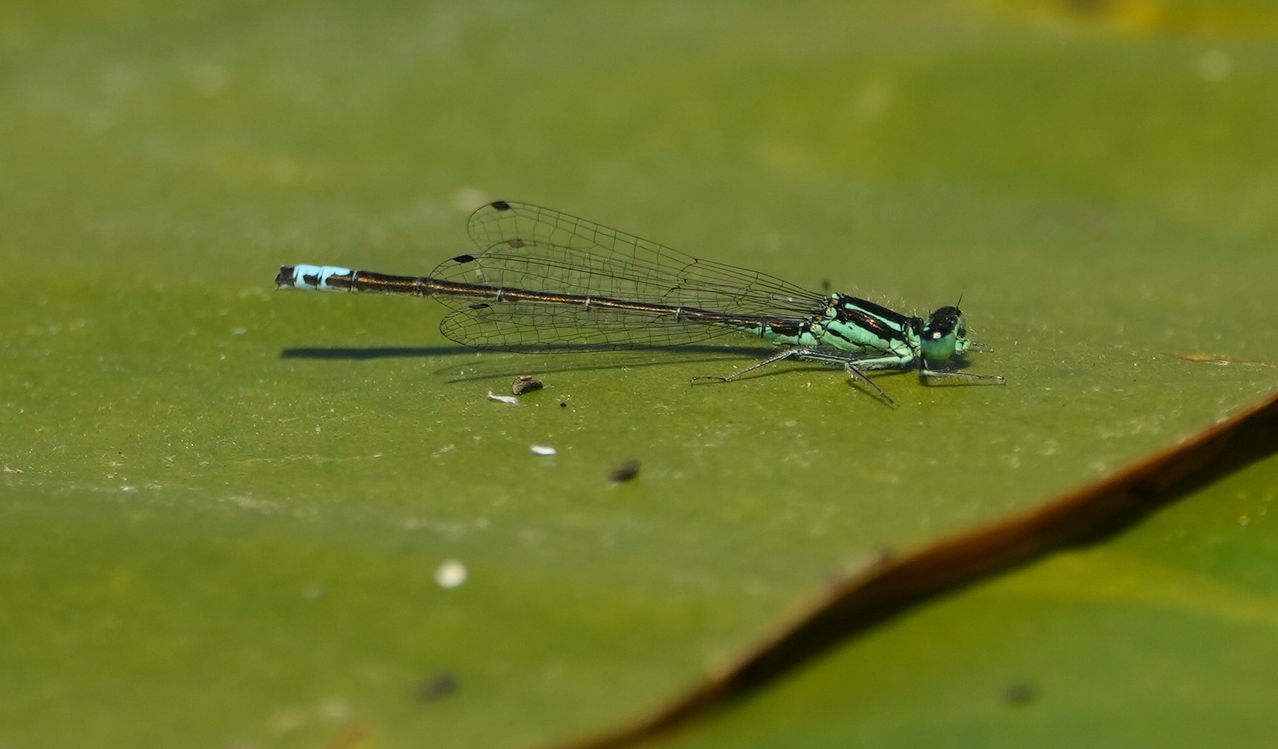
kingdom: Animalia
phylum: Arthropoda
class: Insecta
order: Odonata
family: Coenagrionidae
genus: Ischnura
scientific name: Ischnura verticalis
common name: Eastern forktail
